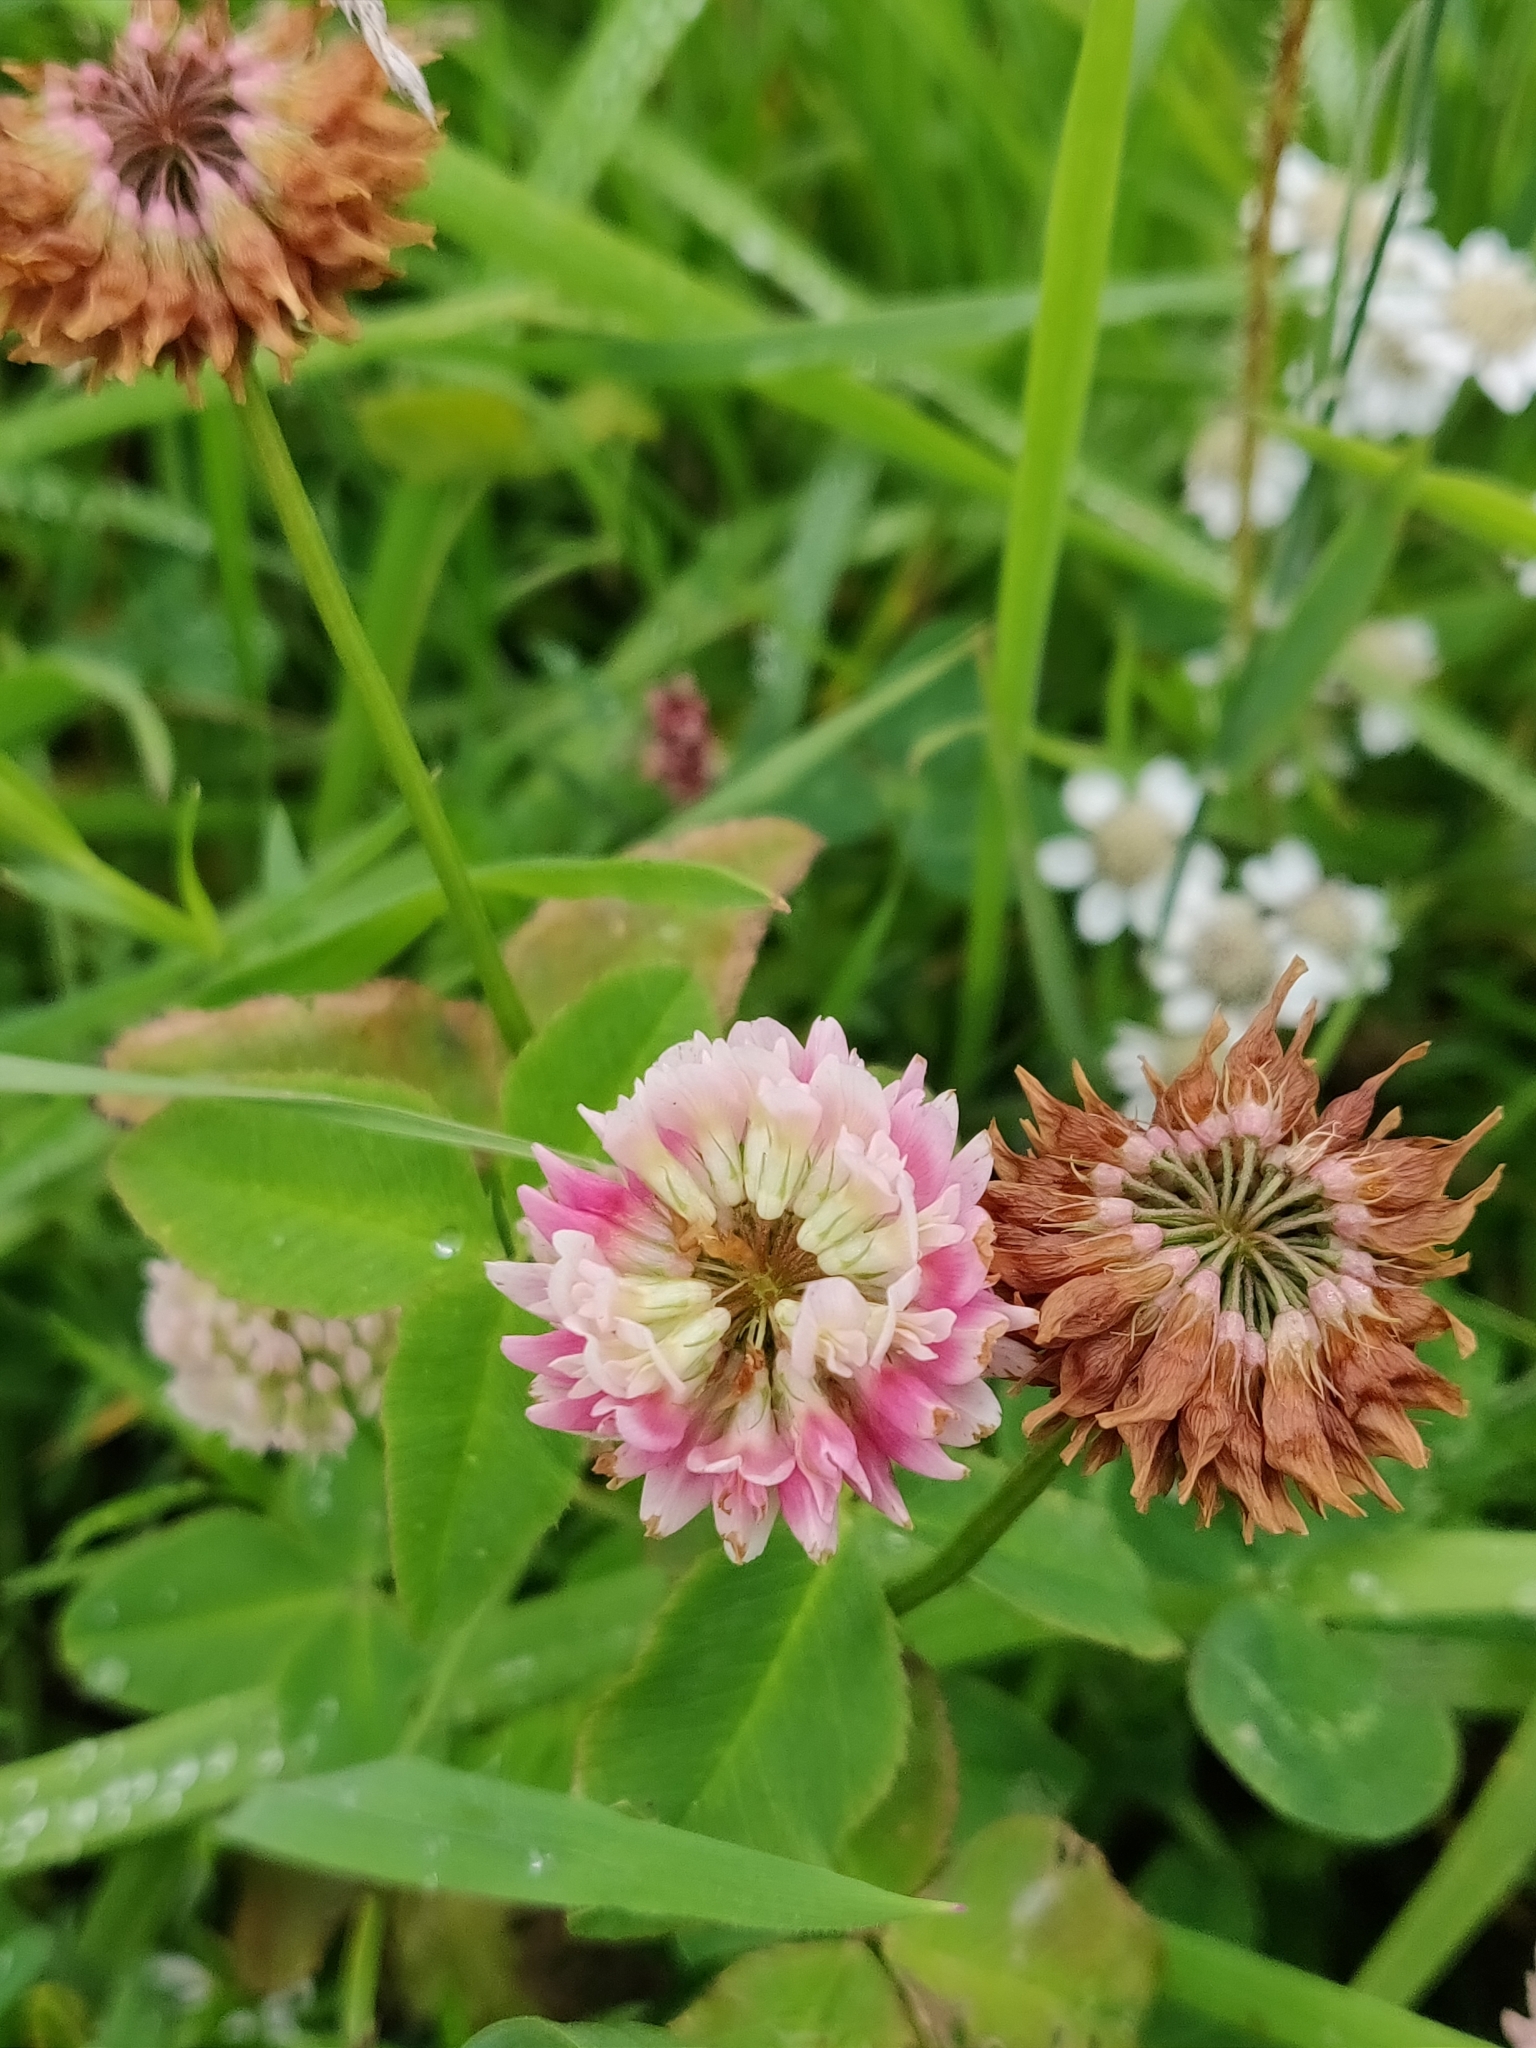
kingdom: Plantae
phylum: Tracheophyta
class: Magnoliopsida
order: Fabales
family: Fabaceae
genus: Trifolium
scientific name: Trifolium hybridum
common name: Alsike clover
